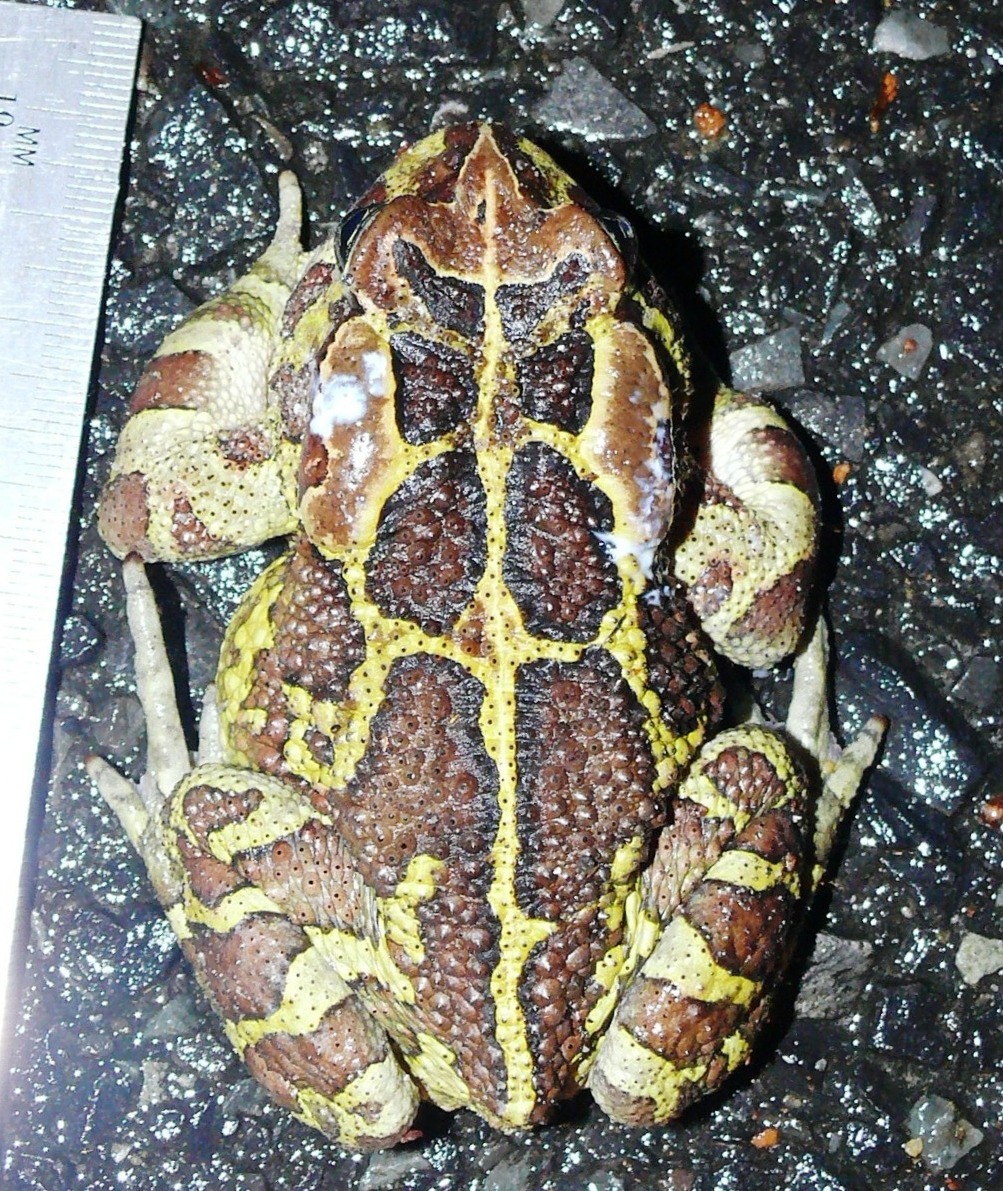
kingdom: Animalia
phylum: Chordata
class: Amphibia
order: Anura
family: Bufonidae
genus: Sclerophrys
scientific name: Sclerophrys pantherina
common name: Panther toad
